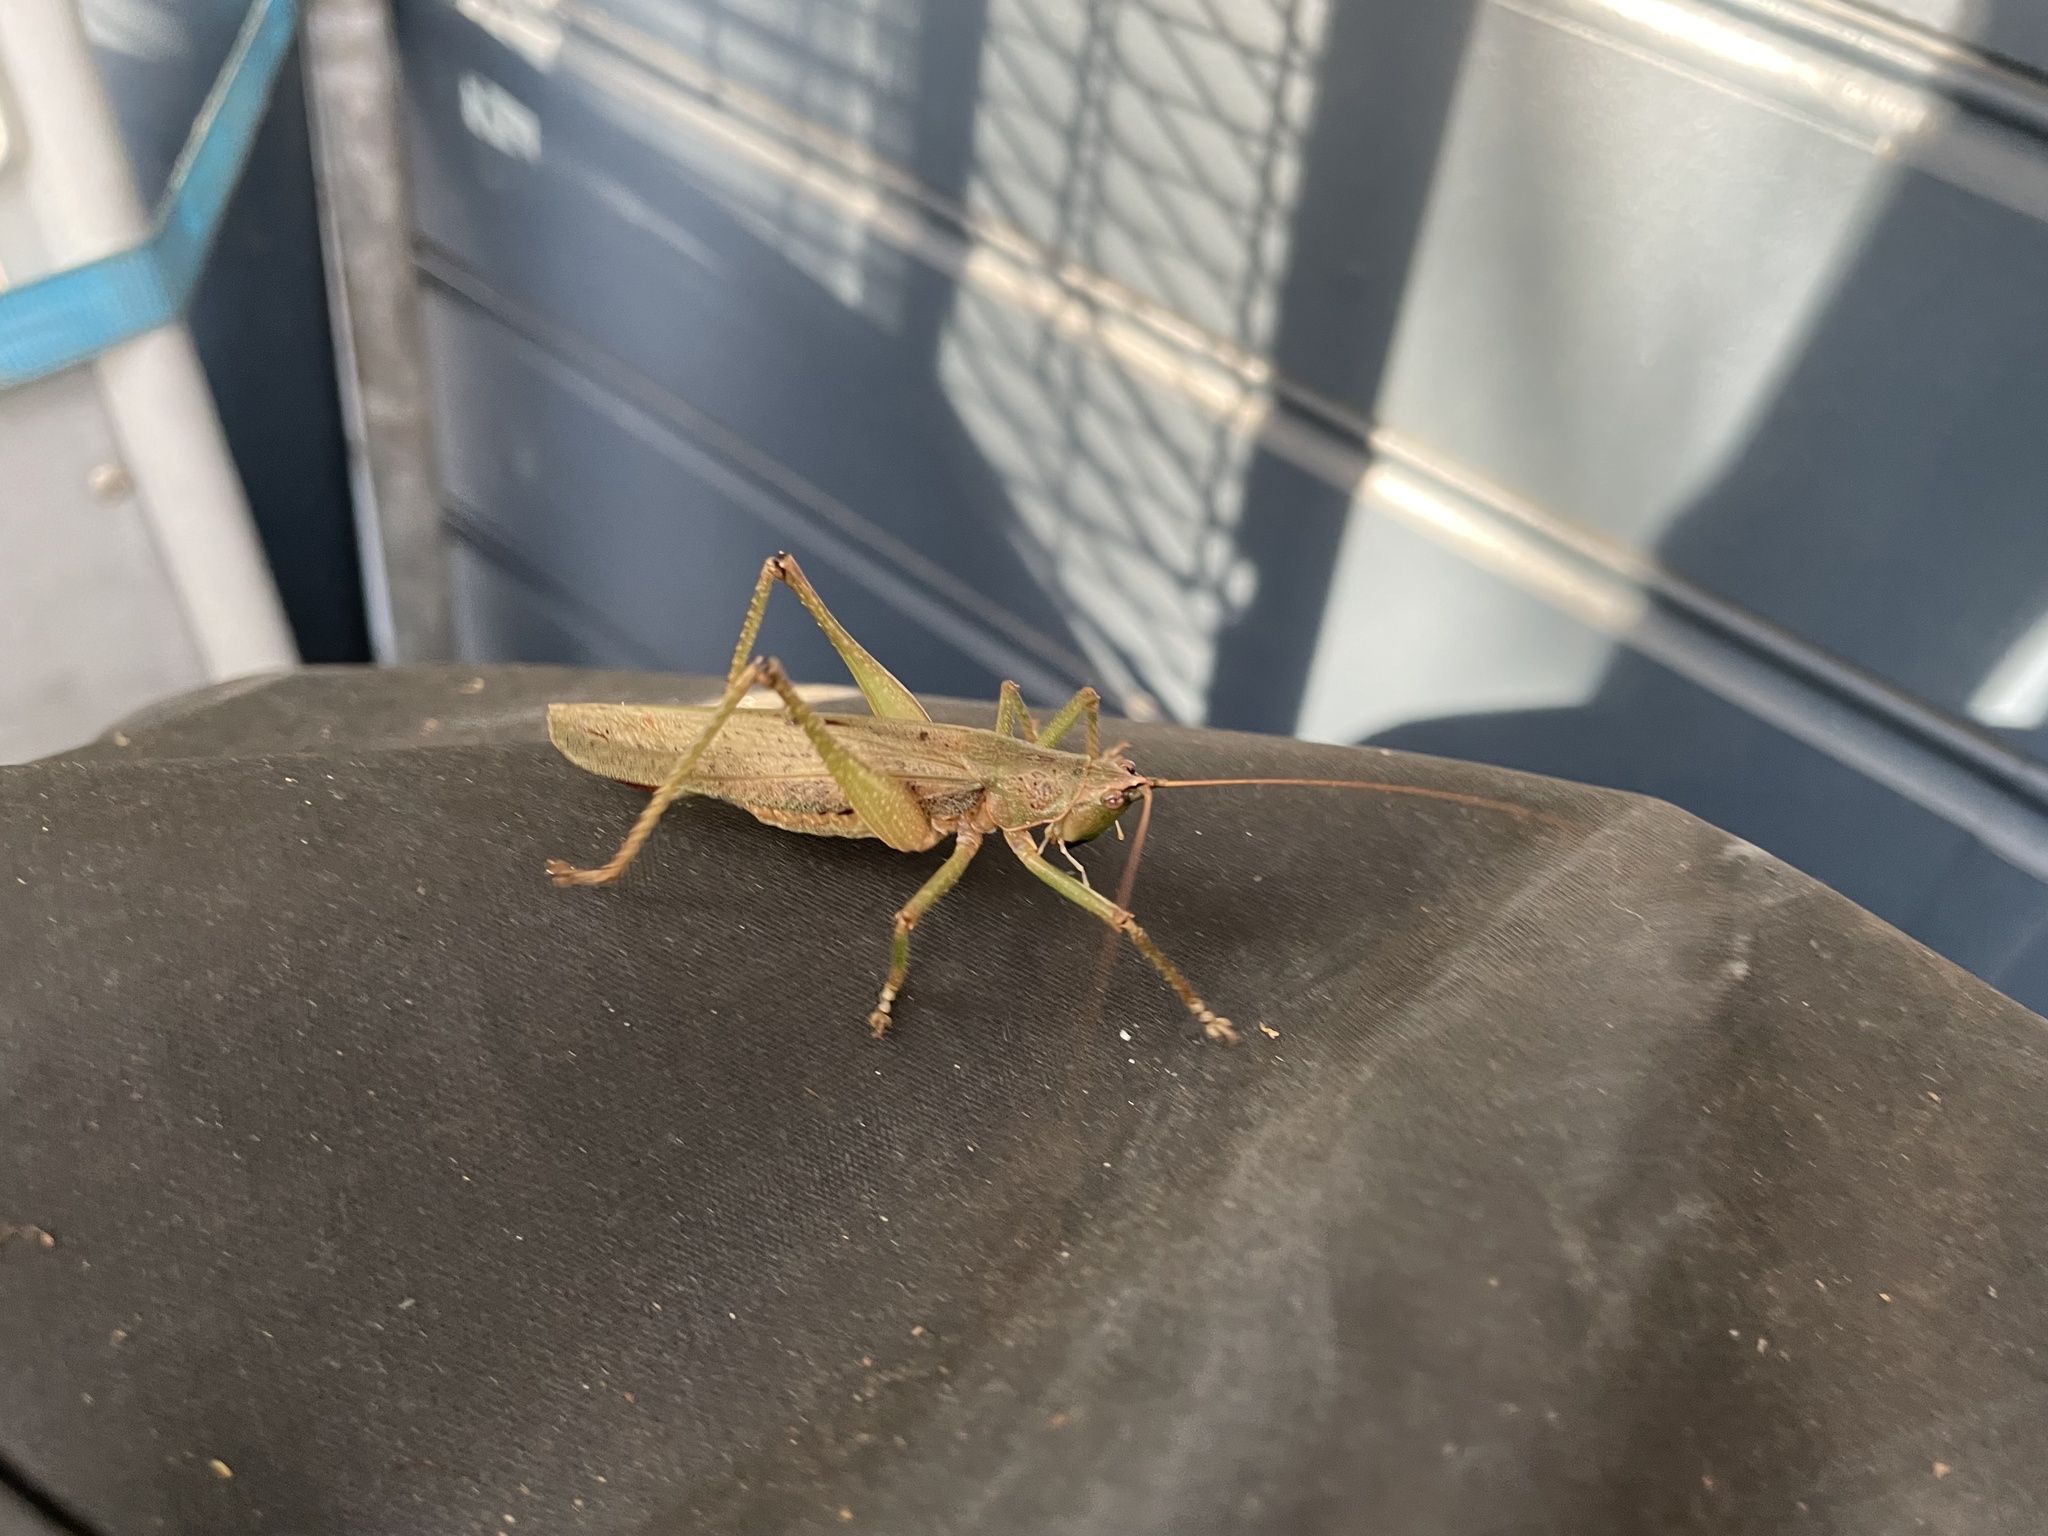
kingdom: Animalia
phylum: Arthropoda
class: Insecta
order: Orthoptera
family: Tettigoniidae
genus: Austrosalomona
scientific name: Austrosalomona falcata
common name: Olive-green coastal katydid
